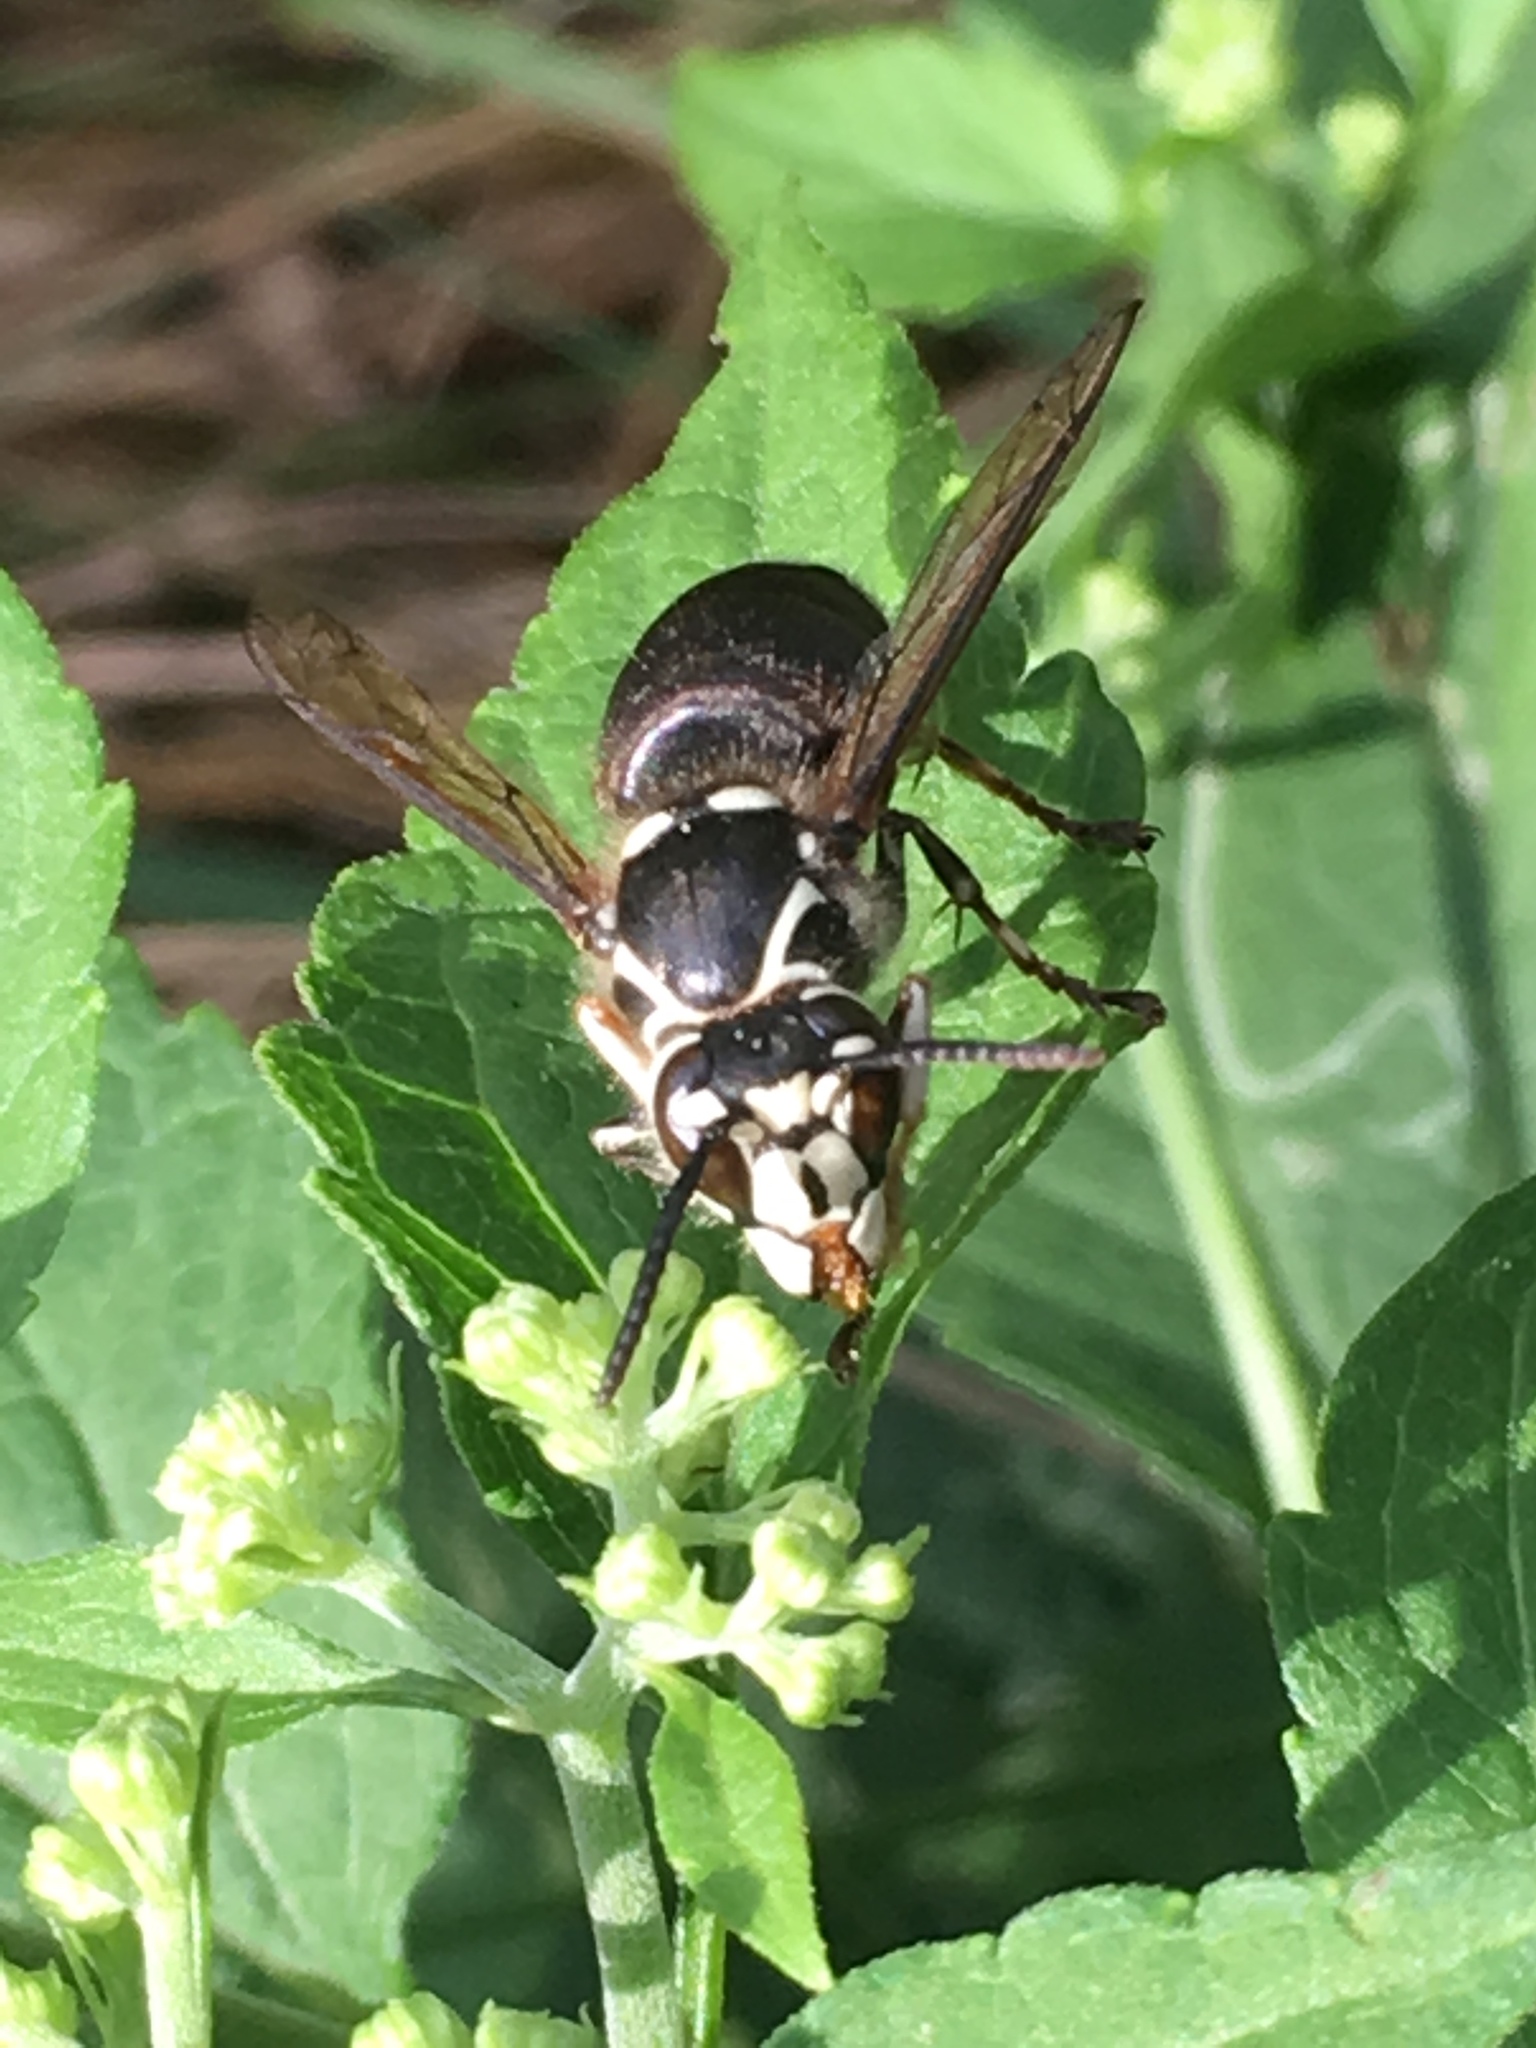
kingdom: Animalia
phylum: Arthropoda
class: Insecta
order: Hymenoptera
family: Vespidae
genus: Dolichovespula
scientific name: Dolichovespula maculata
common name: Bald-faced hornet
